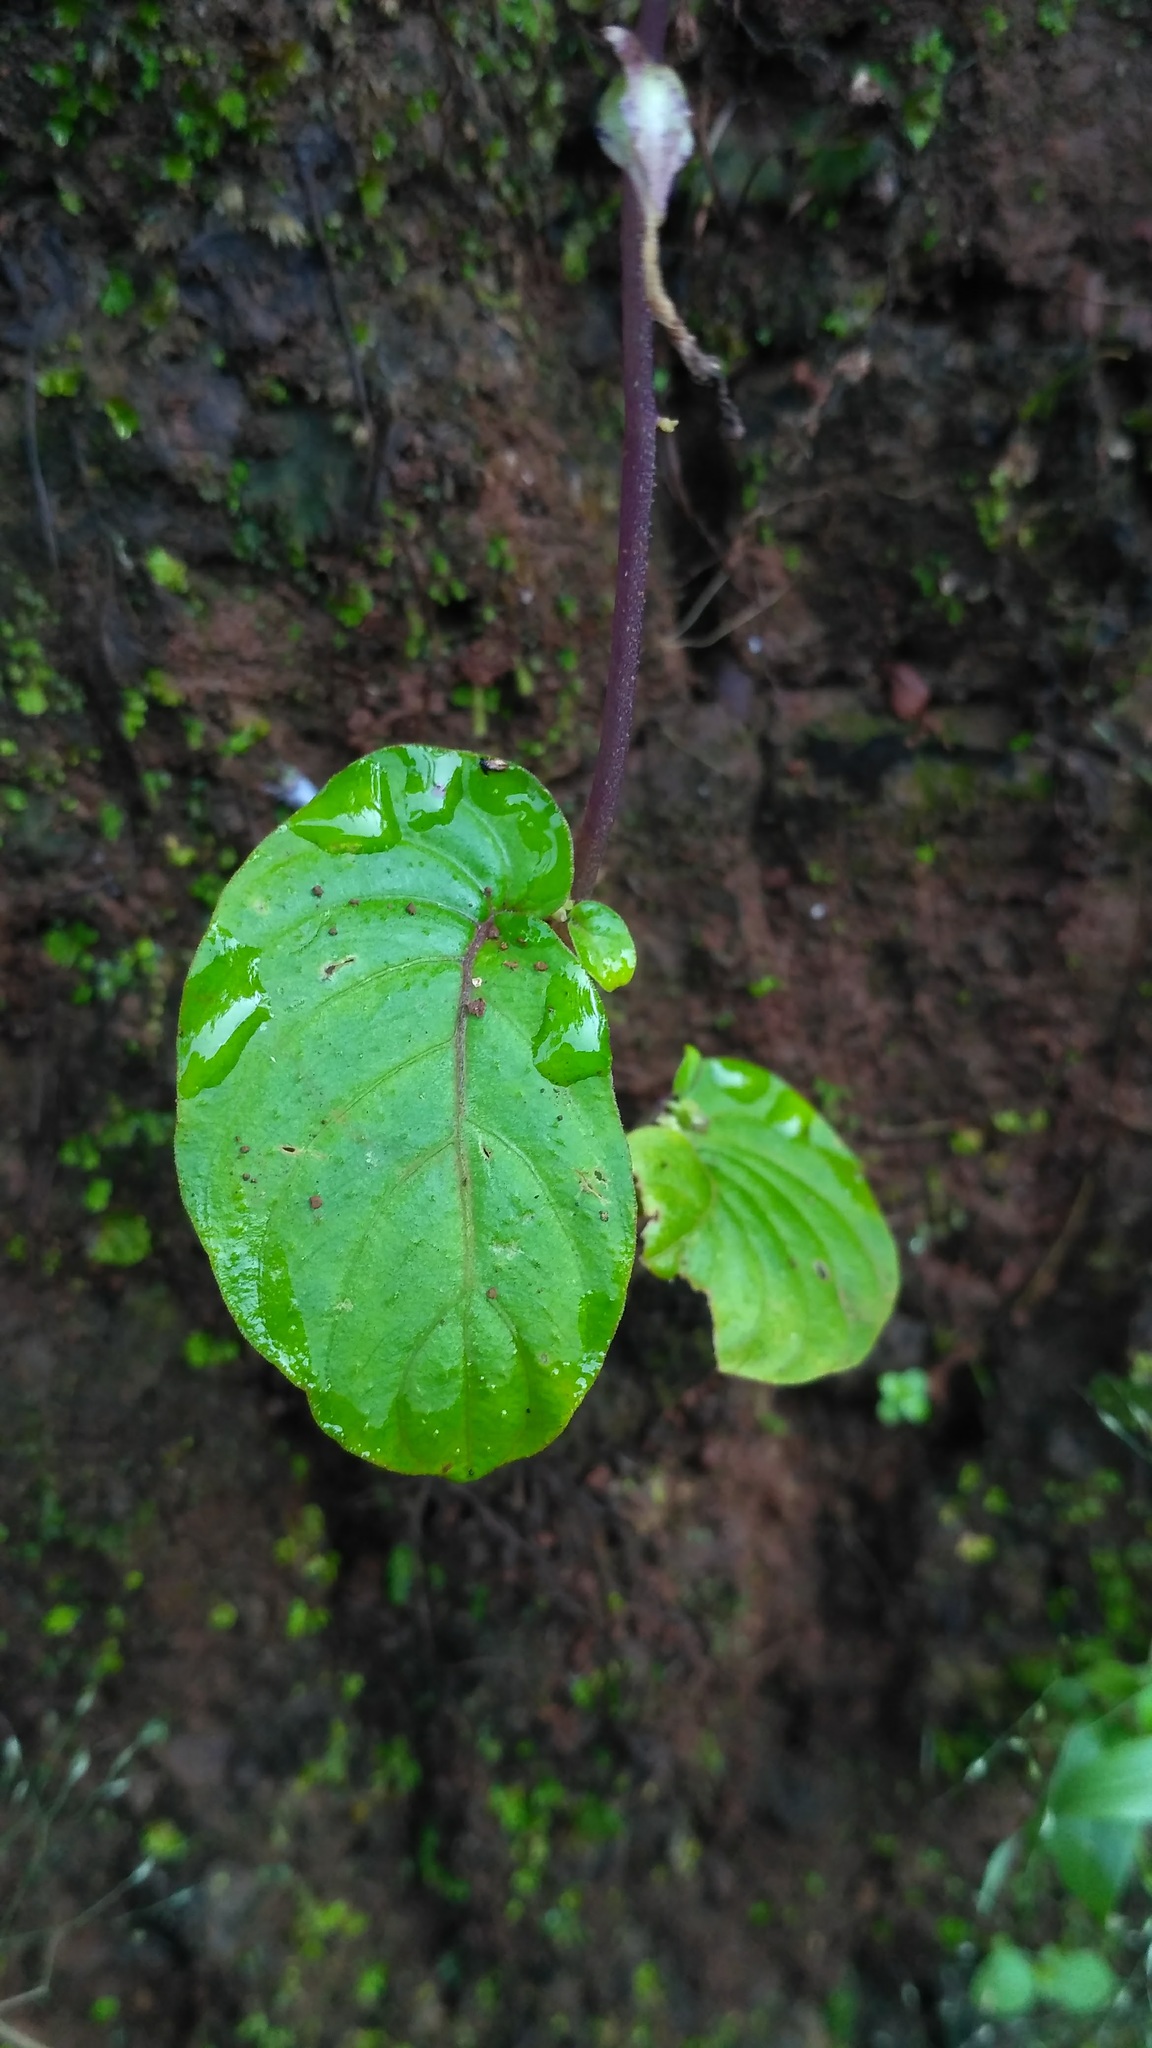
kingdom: Plantae
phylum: Tracheophyta
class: Magnoliopsida
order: Lamiales
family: Gesneriaceae
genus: Rhynchoglossum
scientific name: Rhynchoglossum notonianum
